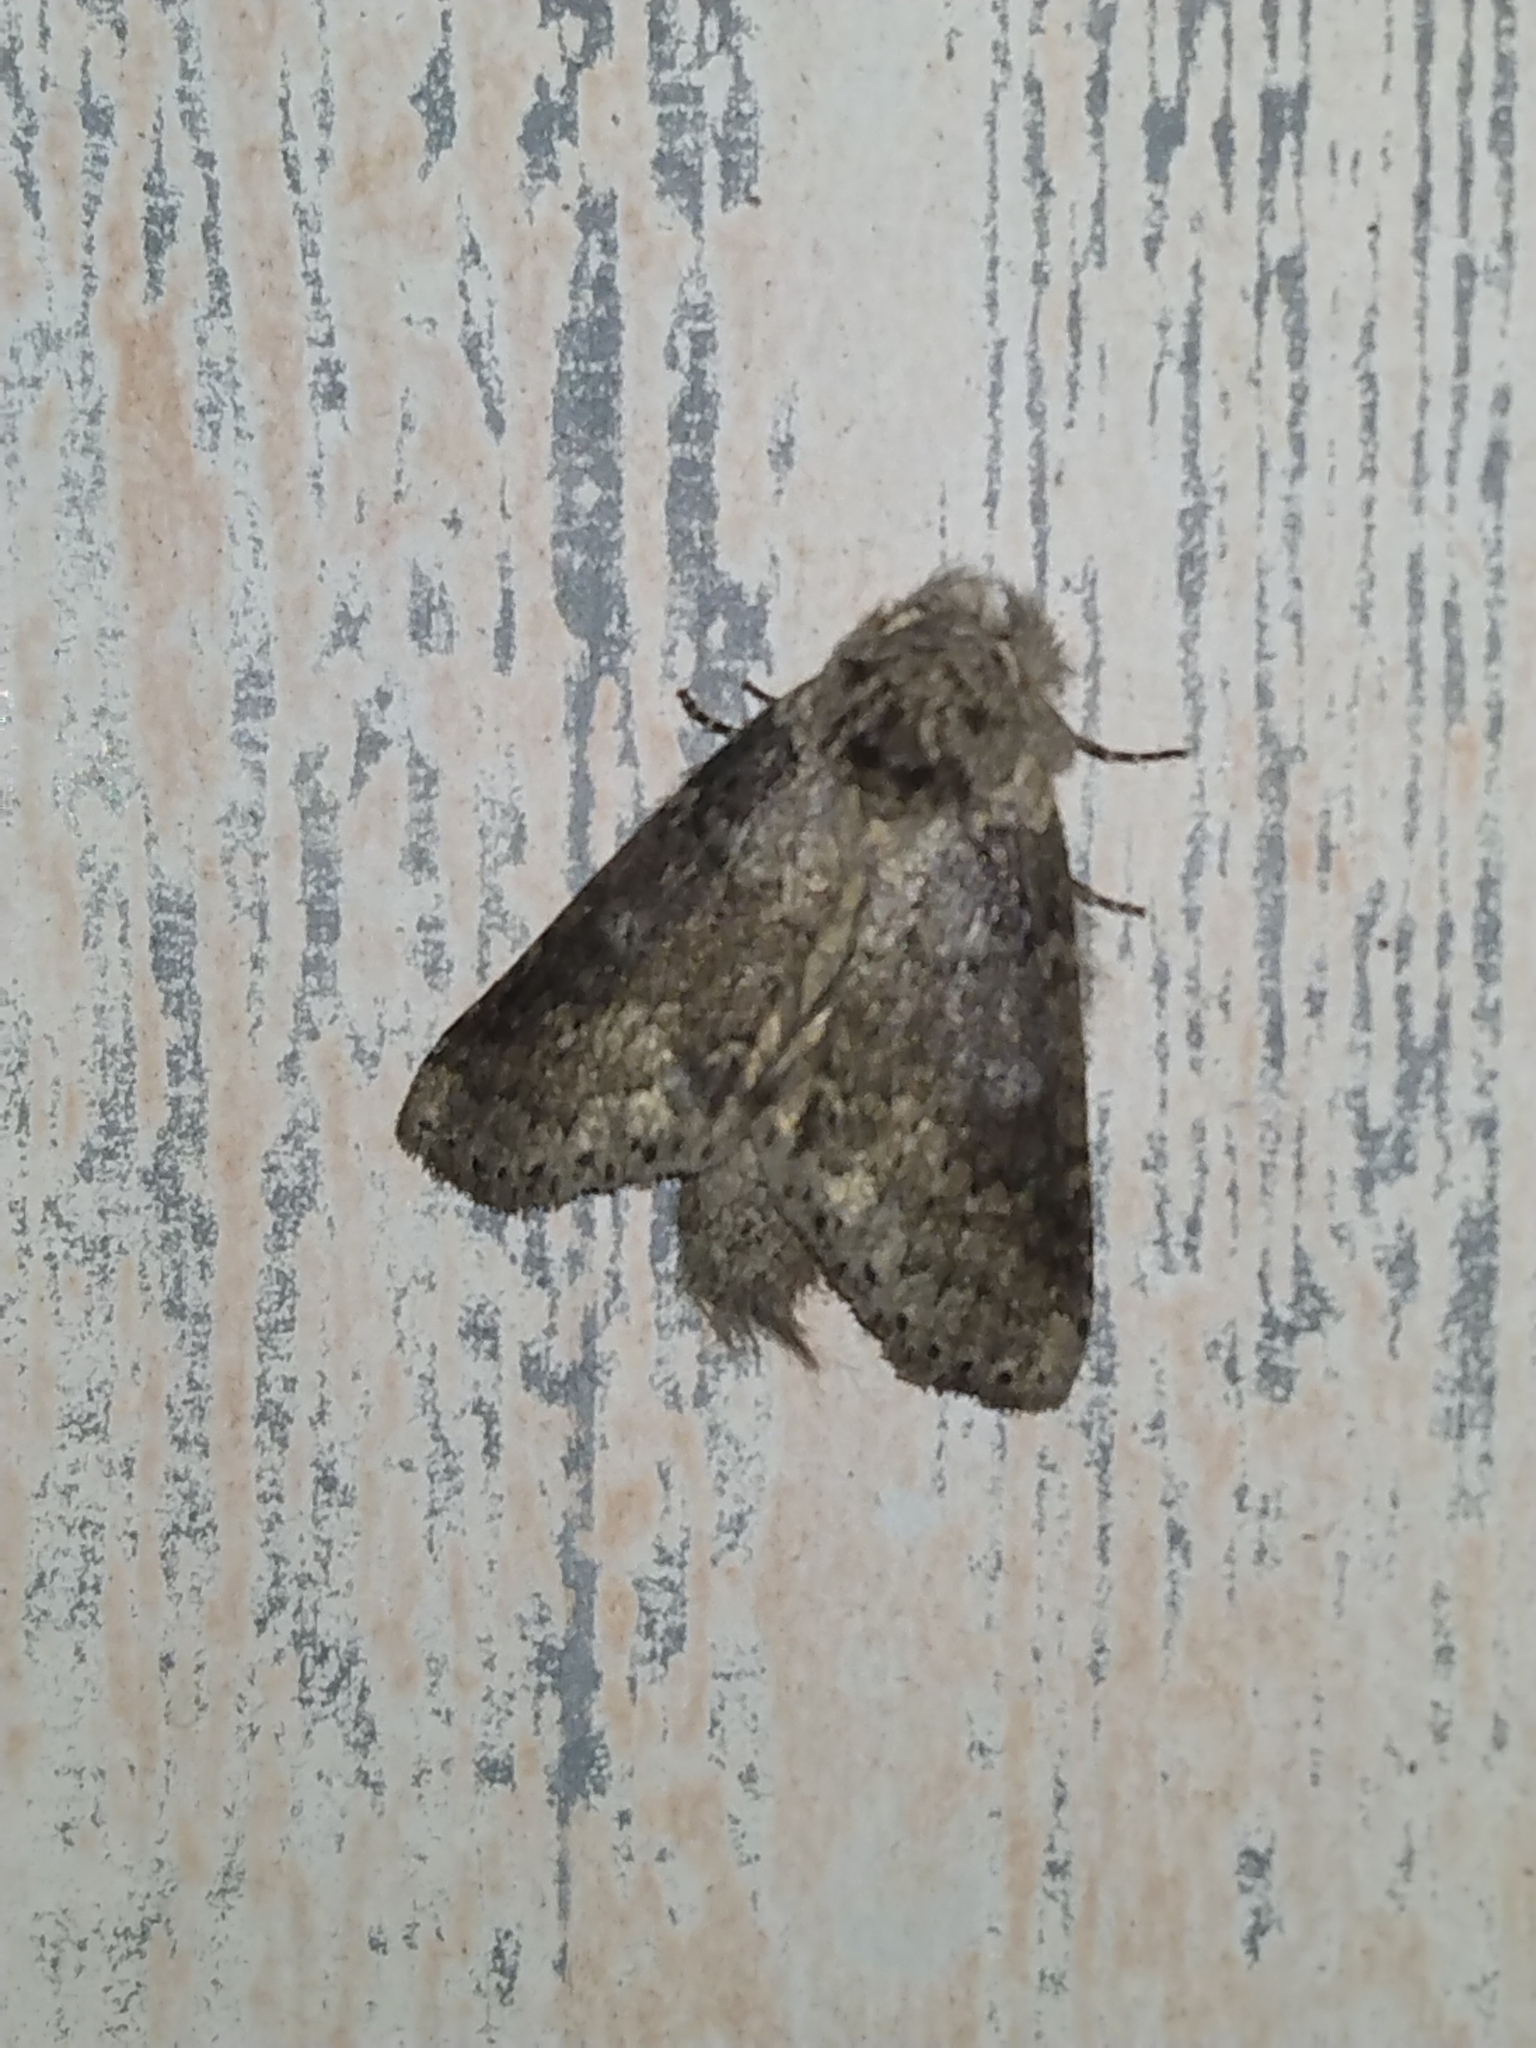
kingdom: Animalia
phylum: Arthropoda
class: Insecta
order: Lepidoptera
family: Notodontidae
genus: Lochmaeus
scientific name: Lochmaeus manteo
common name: Variable oakleaf caterpillar moth
